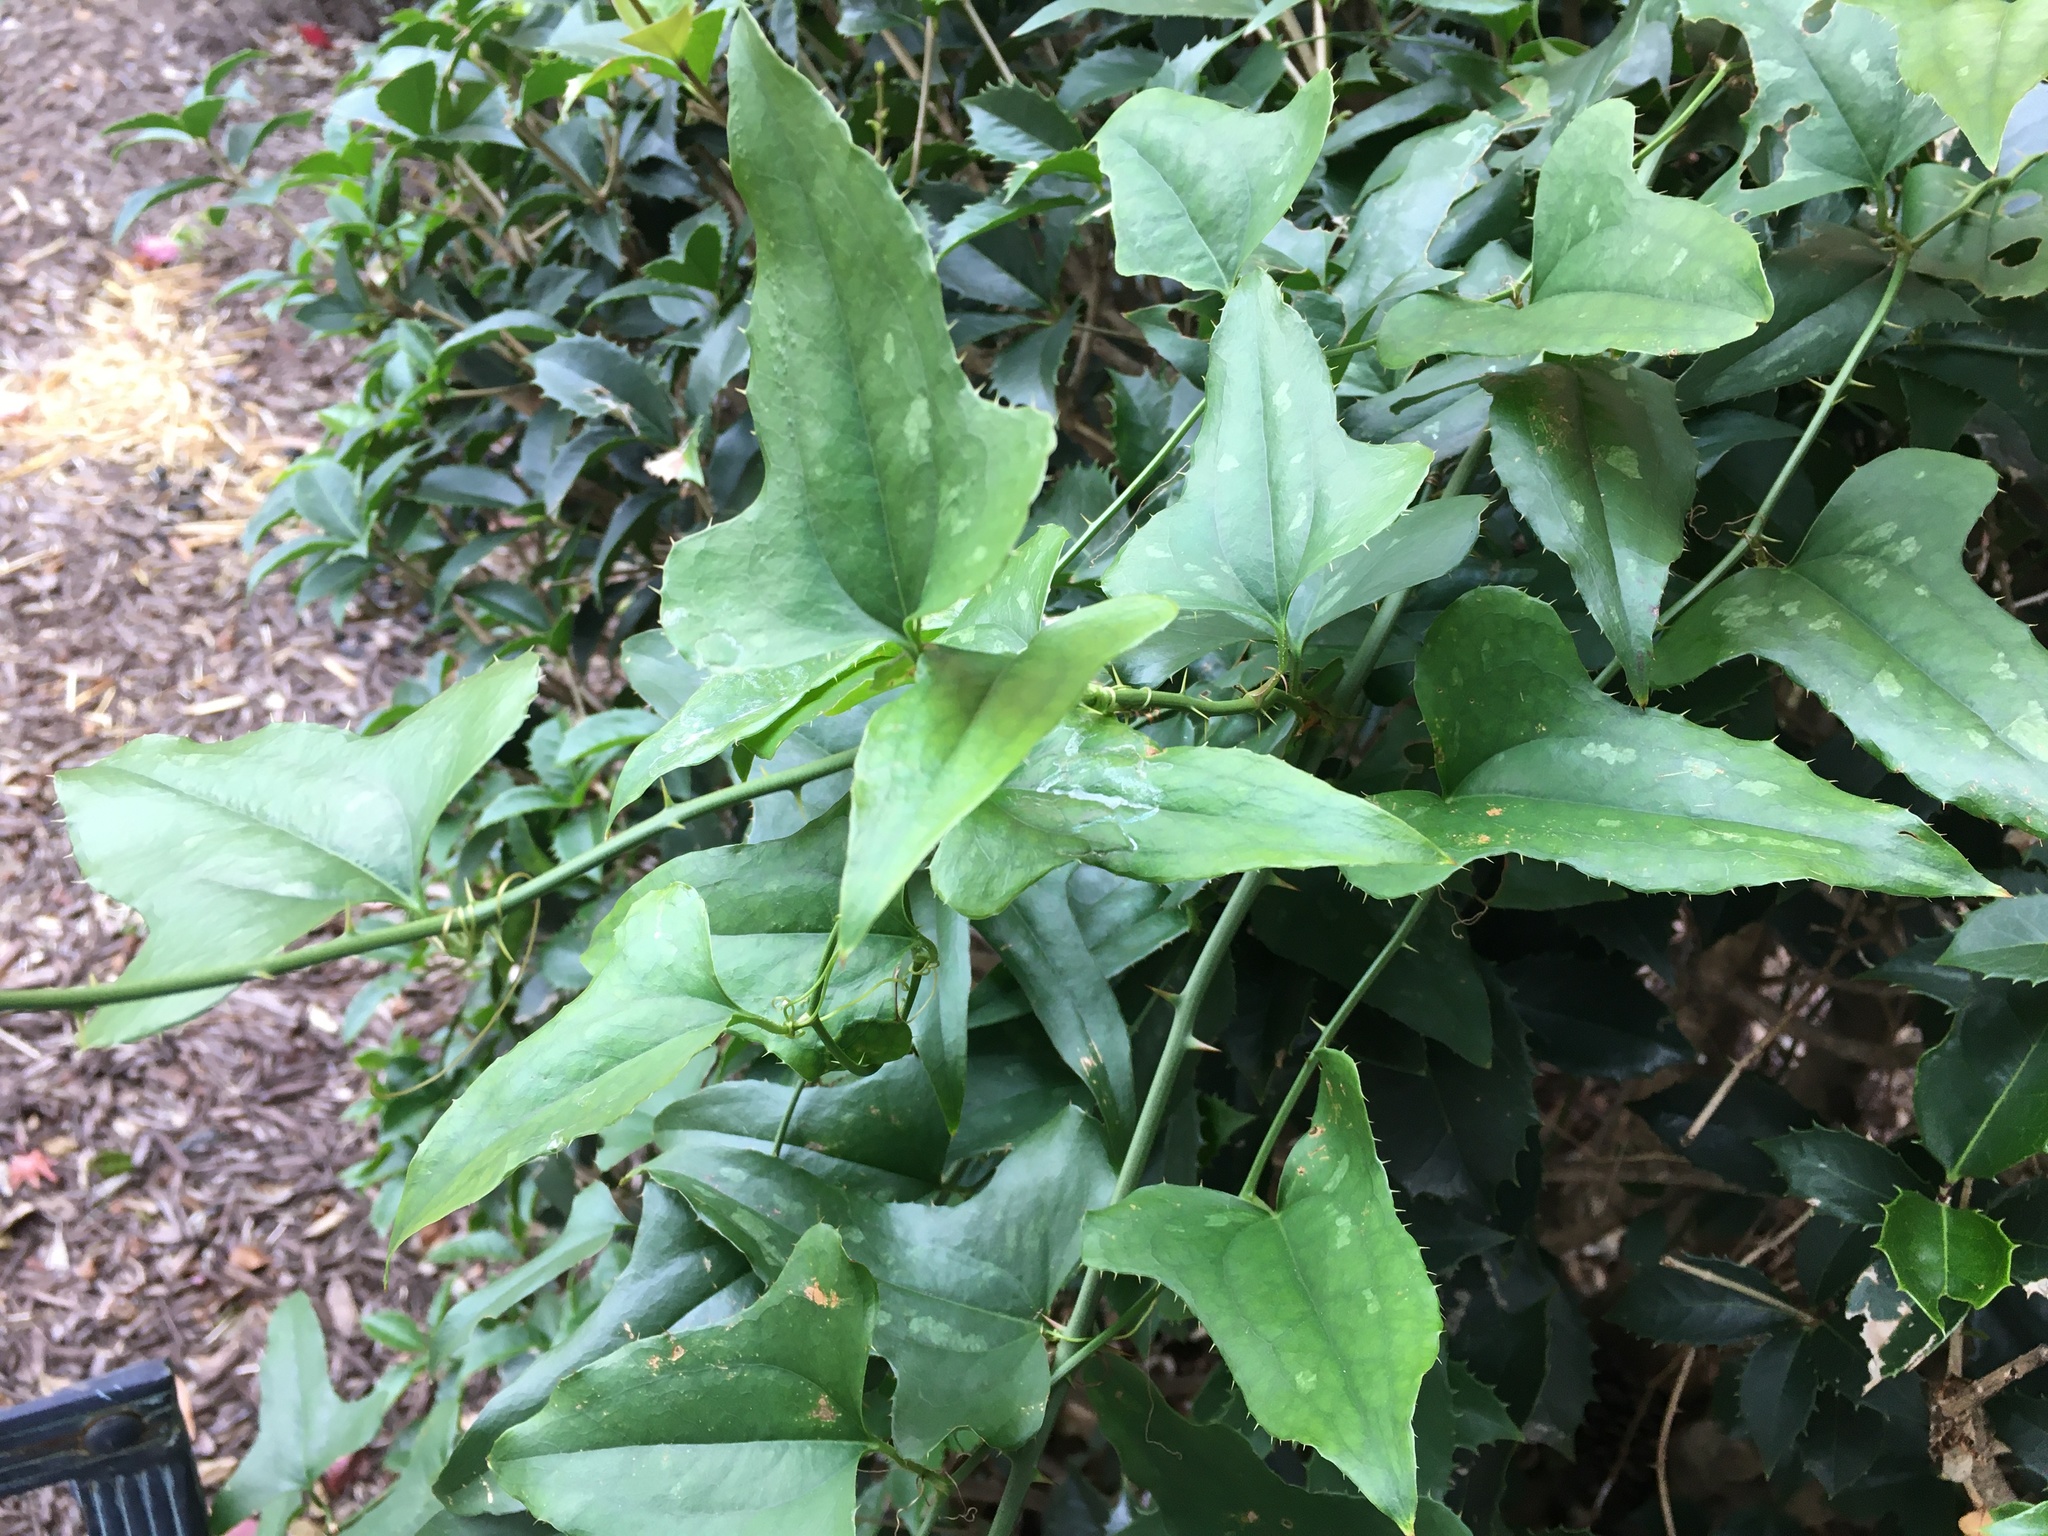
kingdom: Plantae
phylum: Tracheophyta
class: Liliopsida
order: Liliales
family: Smilacaceae
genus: Smilax
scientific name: Smilax bona-nox
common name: Catbrier
